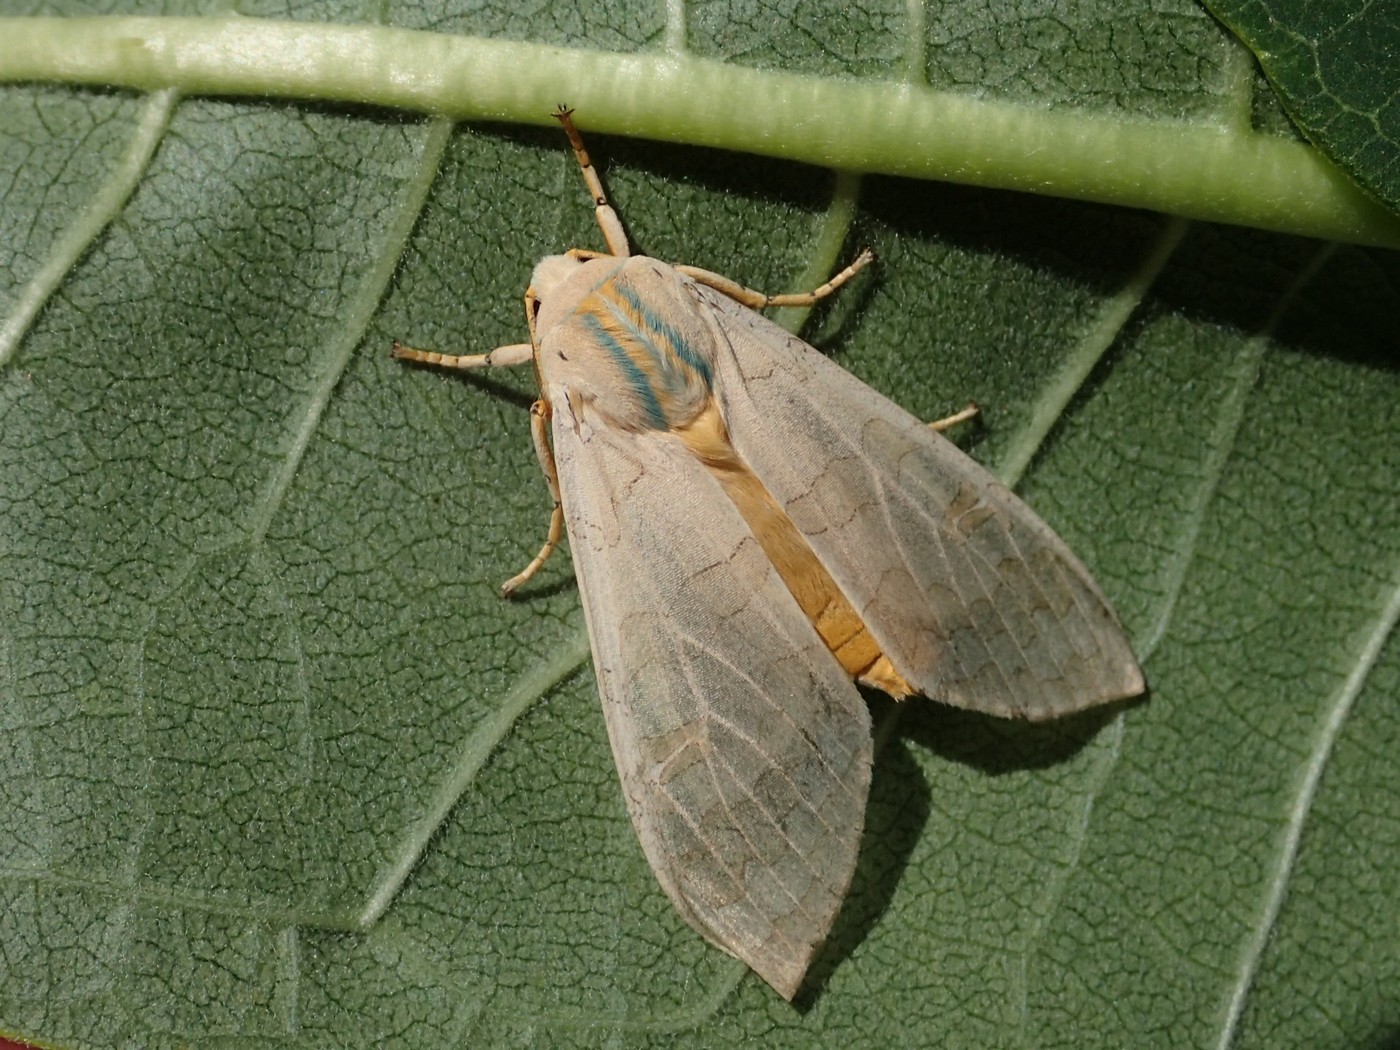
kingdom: Animalia
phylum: Arthropoda
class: Insecta
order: Lepidoptera
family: Erebidae
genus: Halysidota
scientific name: Halysidota
